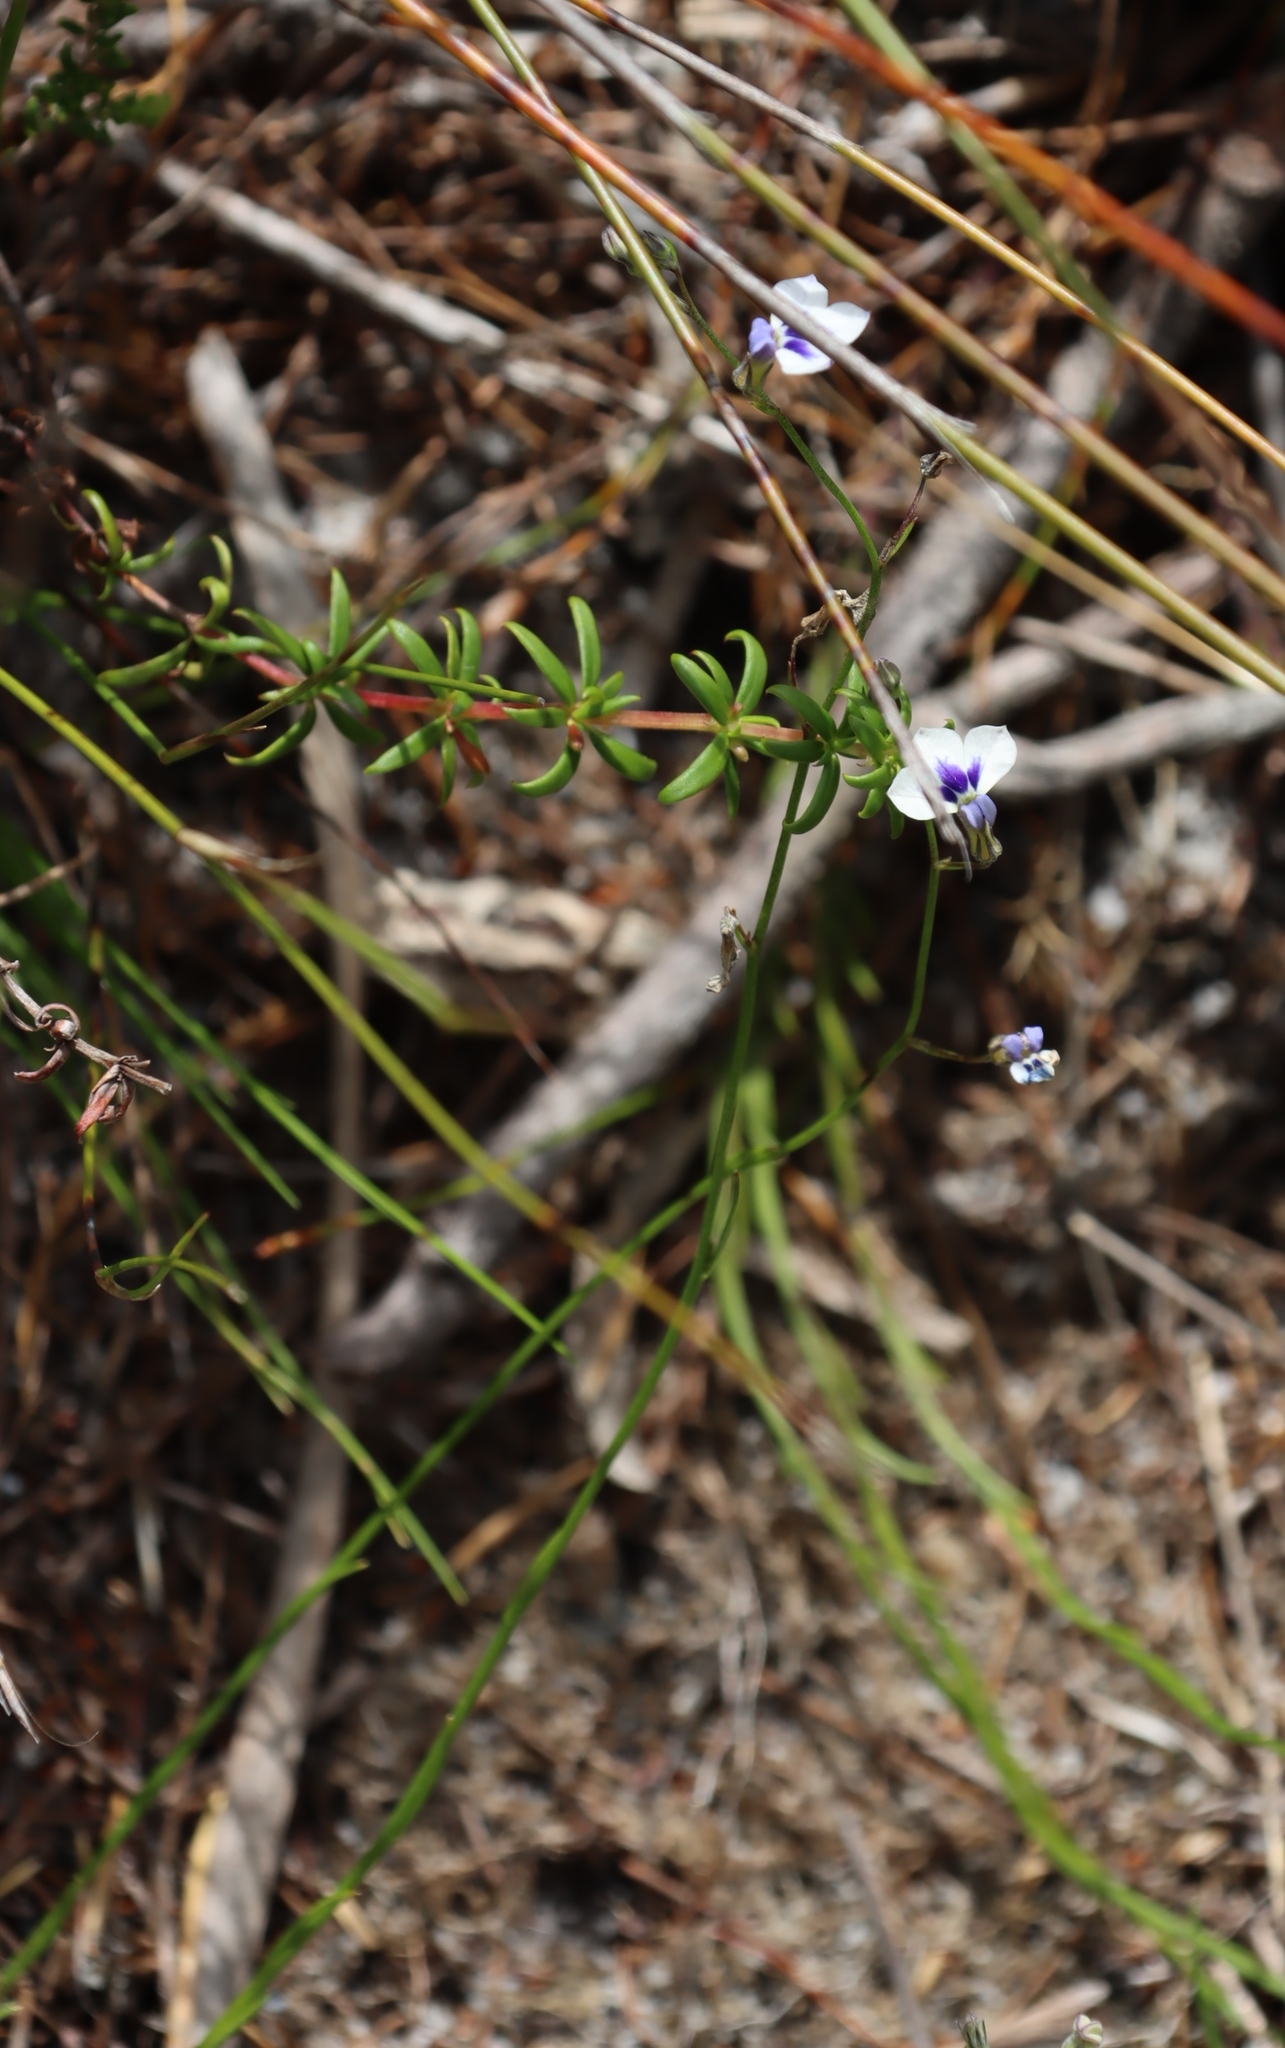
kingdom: Plantae
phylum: Tracheophyta
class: Magnoliopsida
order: Asterales
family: Campanulaceae
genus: Lobelia
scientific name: Lobelia setacea
